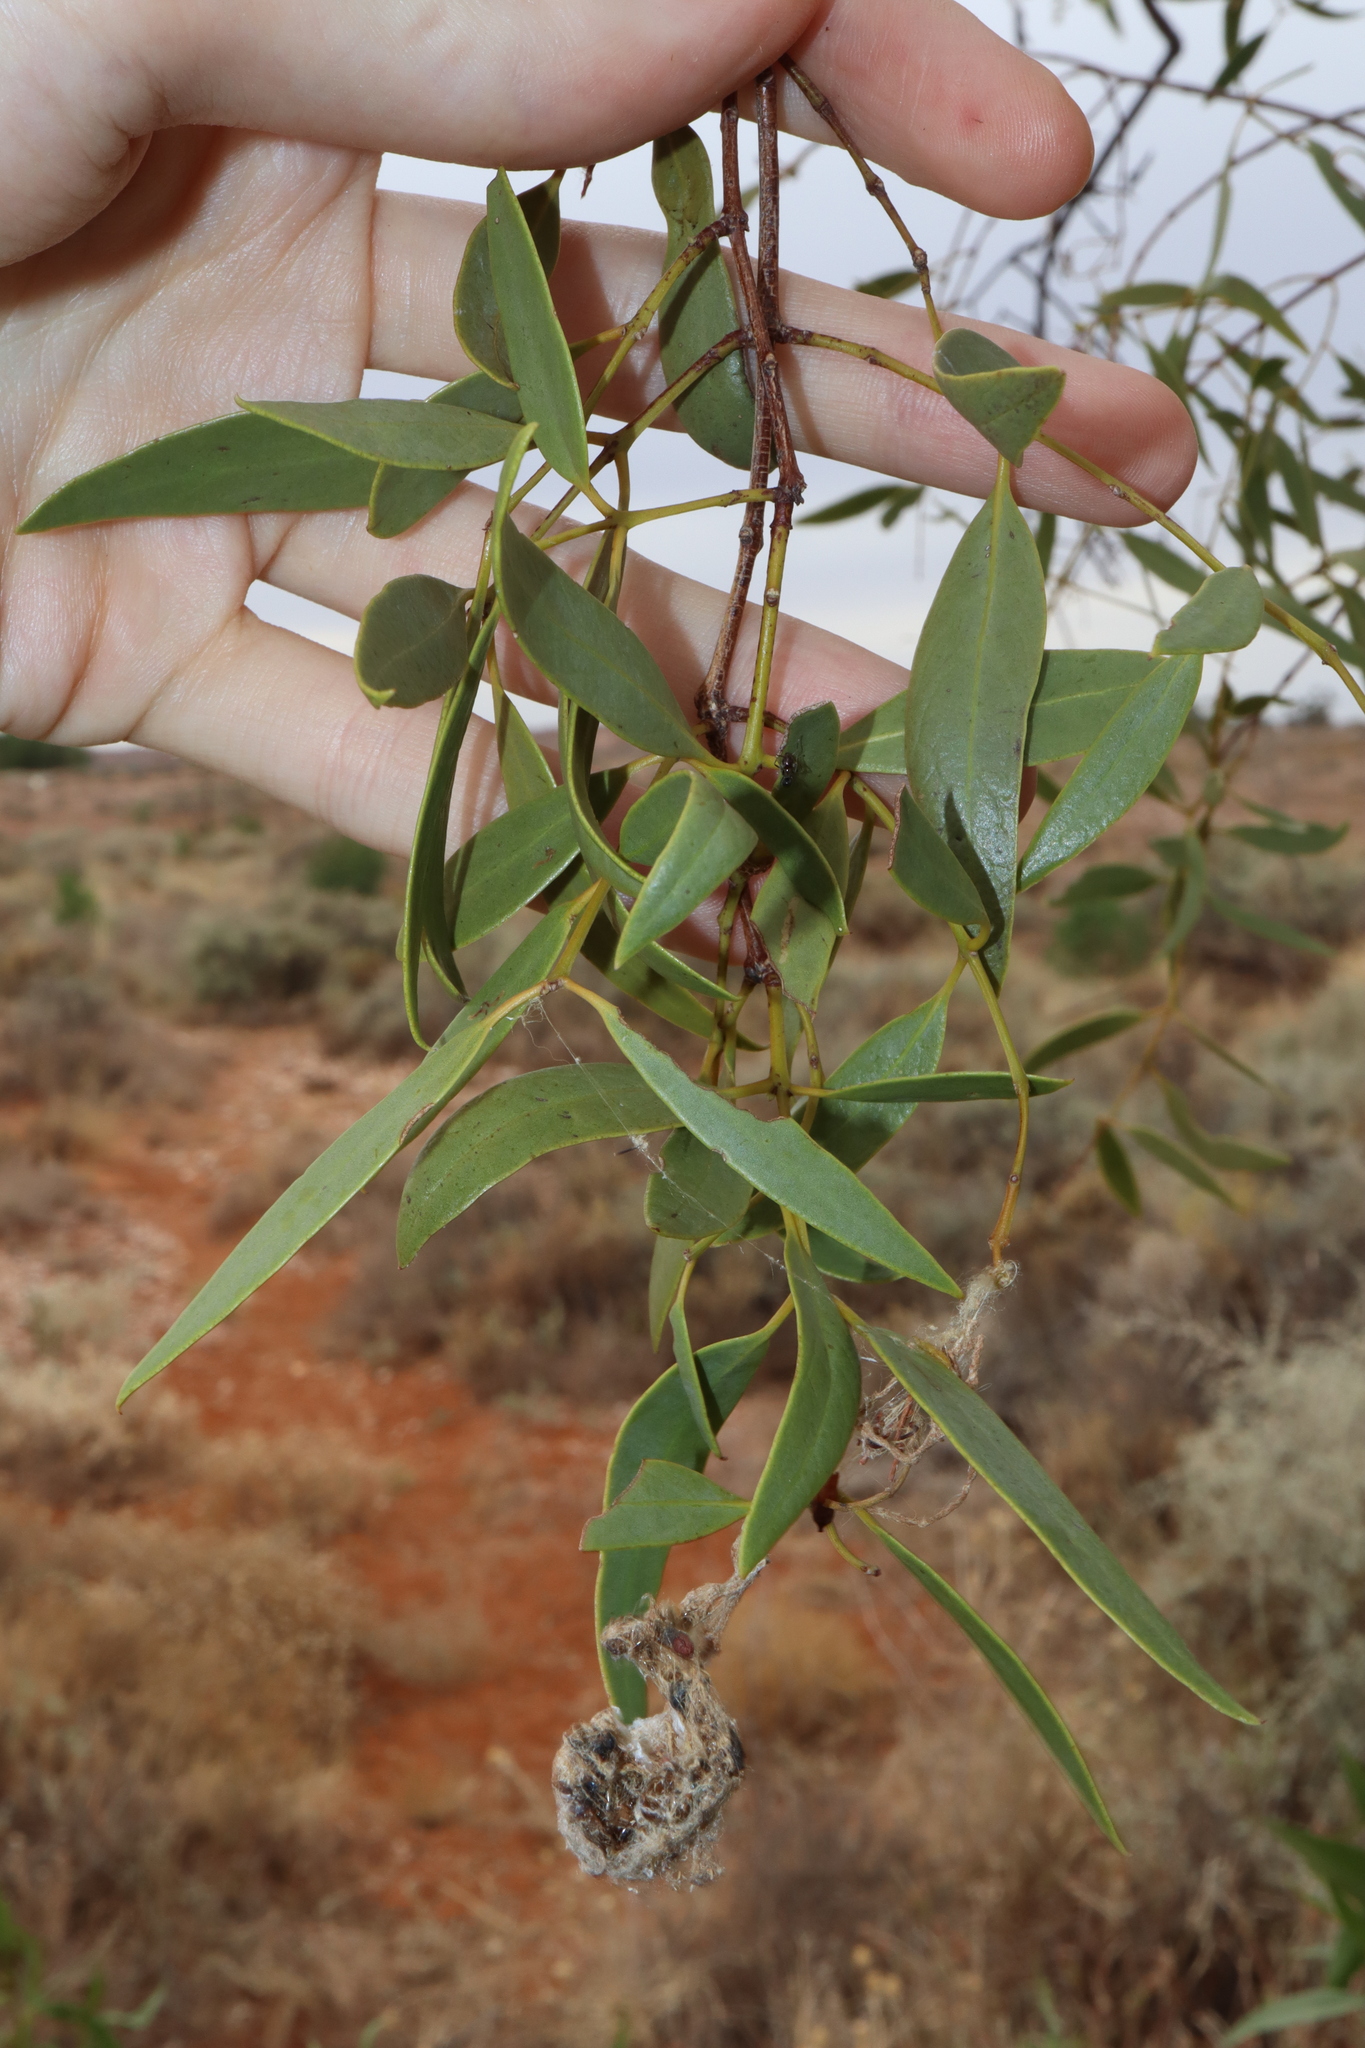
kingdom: Plantae
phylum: Tracheophyta
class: Magnoliopsida
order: Santalales
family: Santalaceae
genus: Santalum
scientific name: Santalum lanceolatum
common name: Ankwerley
